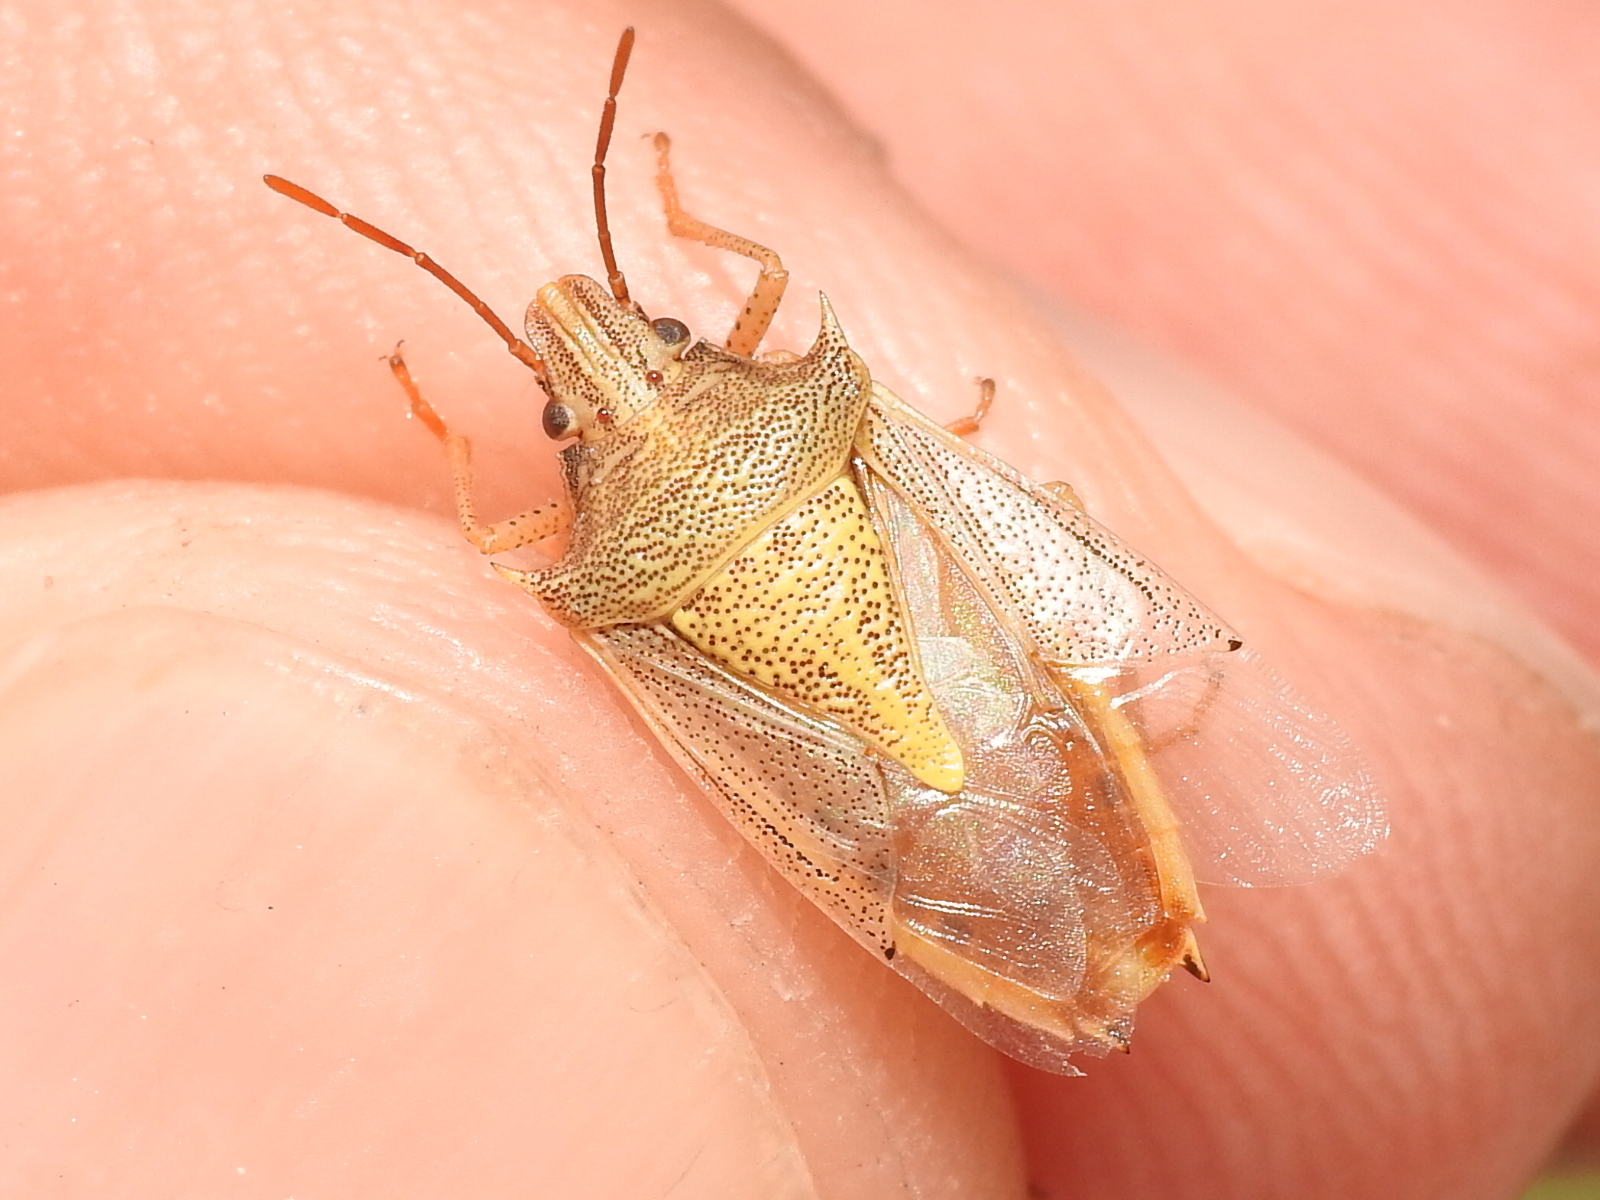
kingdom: Animalia
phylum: Arthropoda
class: Insecta
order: Hemiptera
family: Pentatomidae
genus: Oebalus
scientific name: Oebalus pugnax
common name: Rice stink bug
